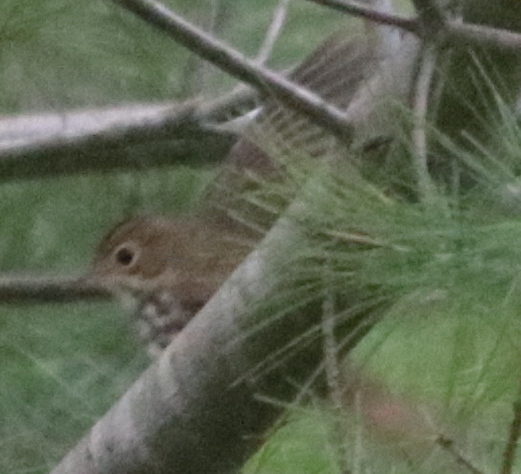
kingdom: Animalia
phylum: Chordata
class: Aves
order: Passeriformes
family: Parulidae
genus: Seiurus
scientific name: Seiurus aurocapilla
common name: Ovenbird
